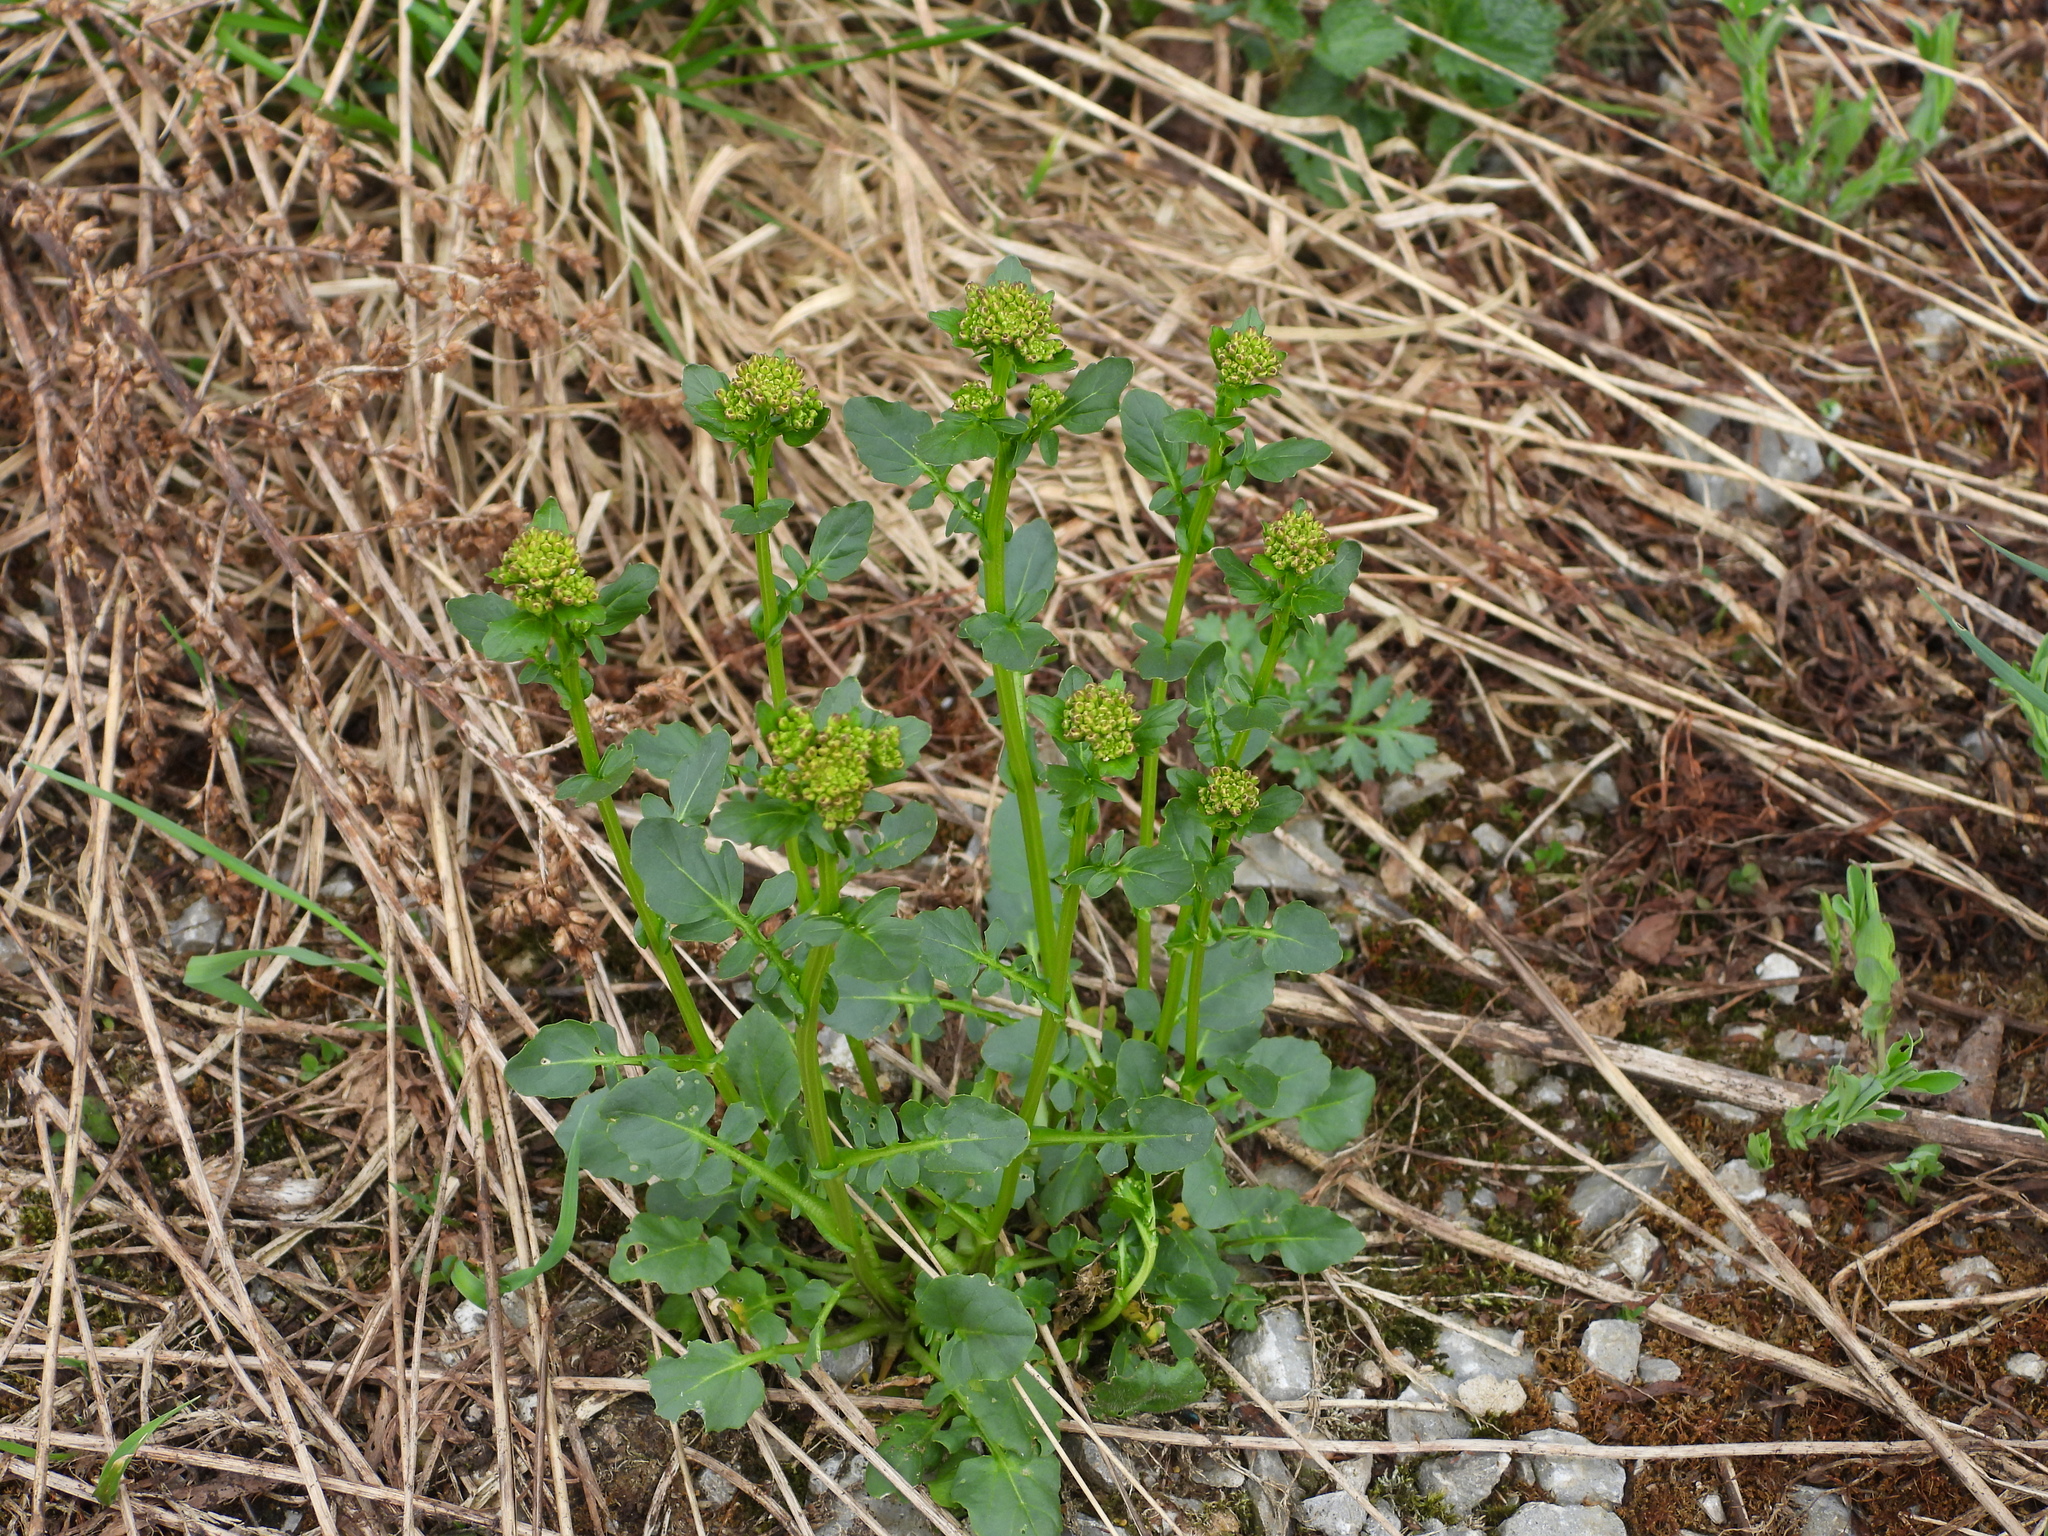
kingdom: Plantae
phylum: Tracheophyta
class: Magnoliopsida
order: Brassicales
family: Brassicaceae
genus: Barbarea
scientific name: Barbarea vulgaris
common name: Cressy-greens
